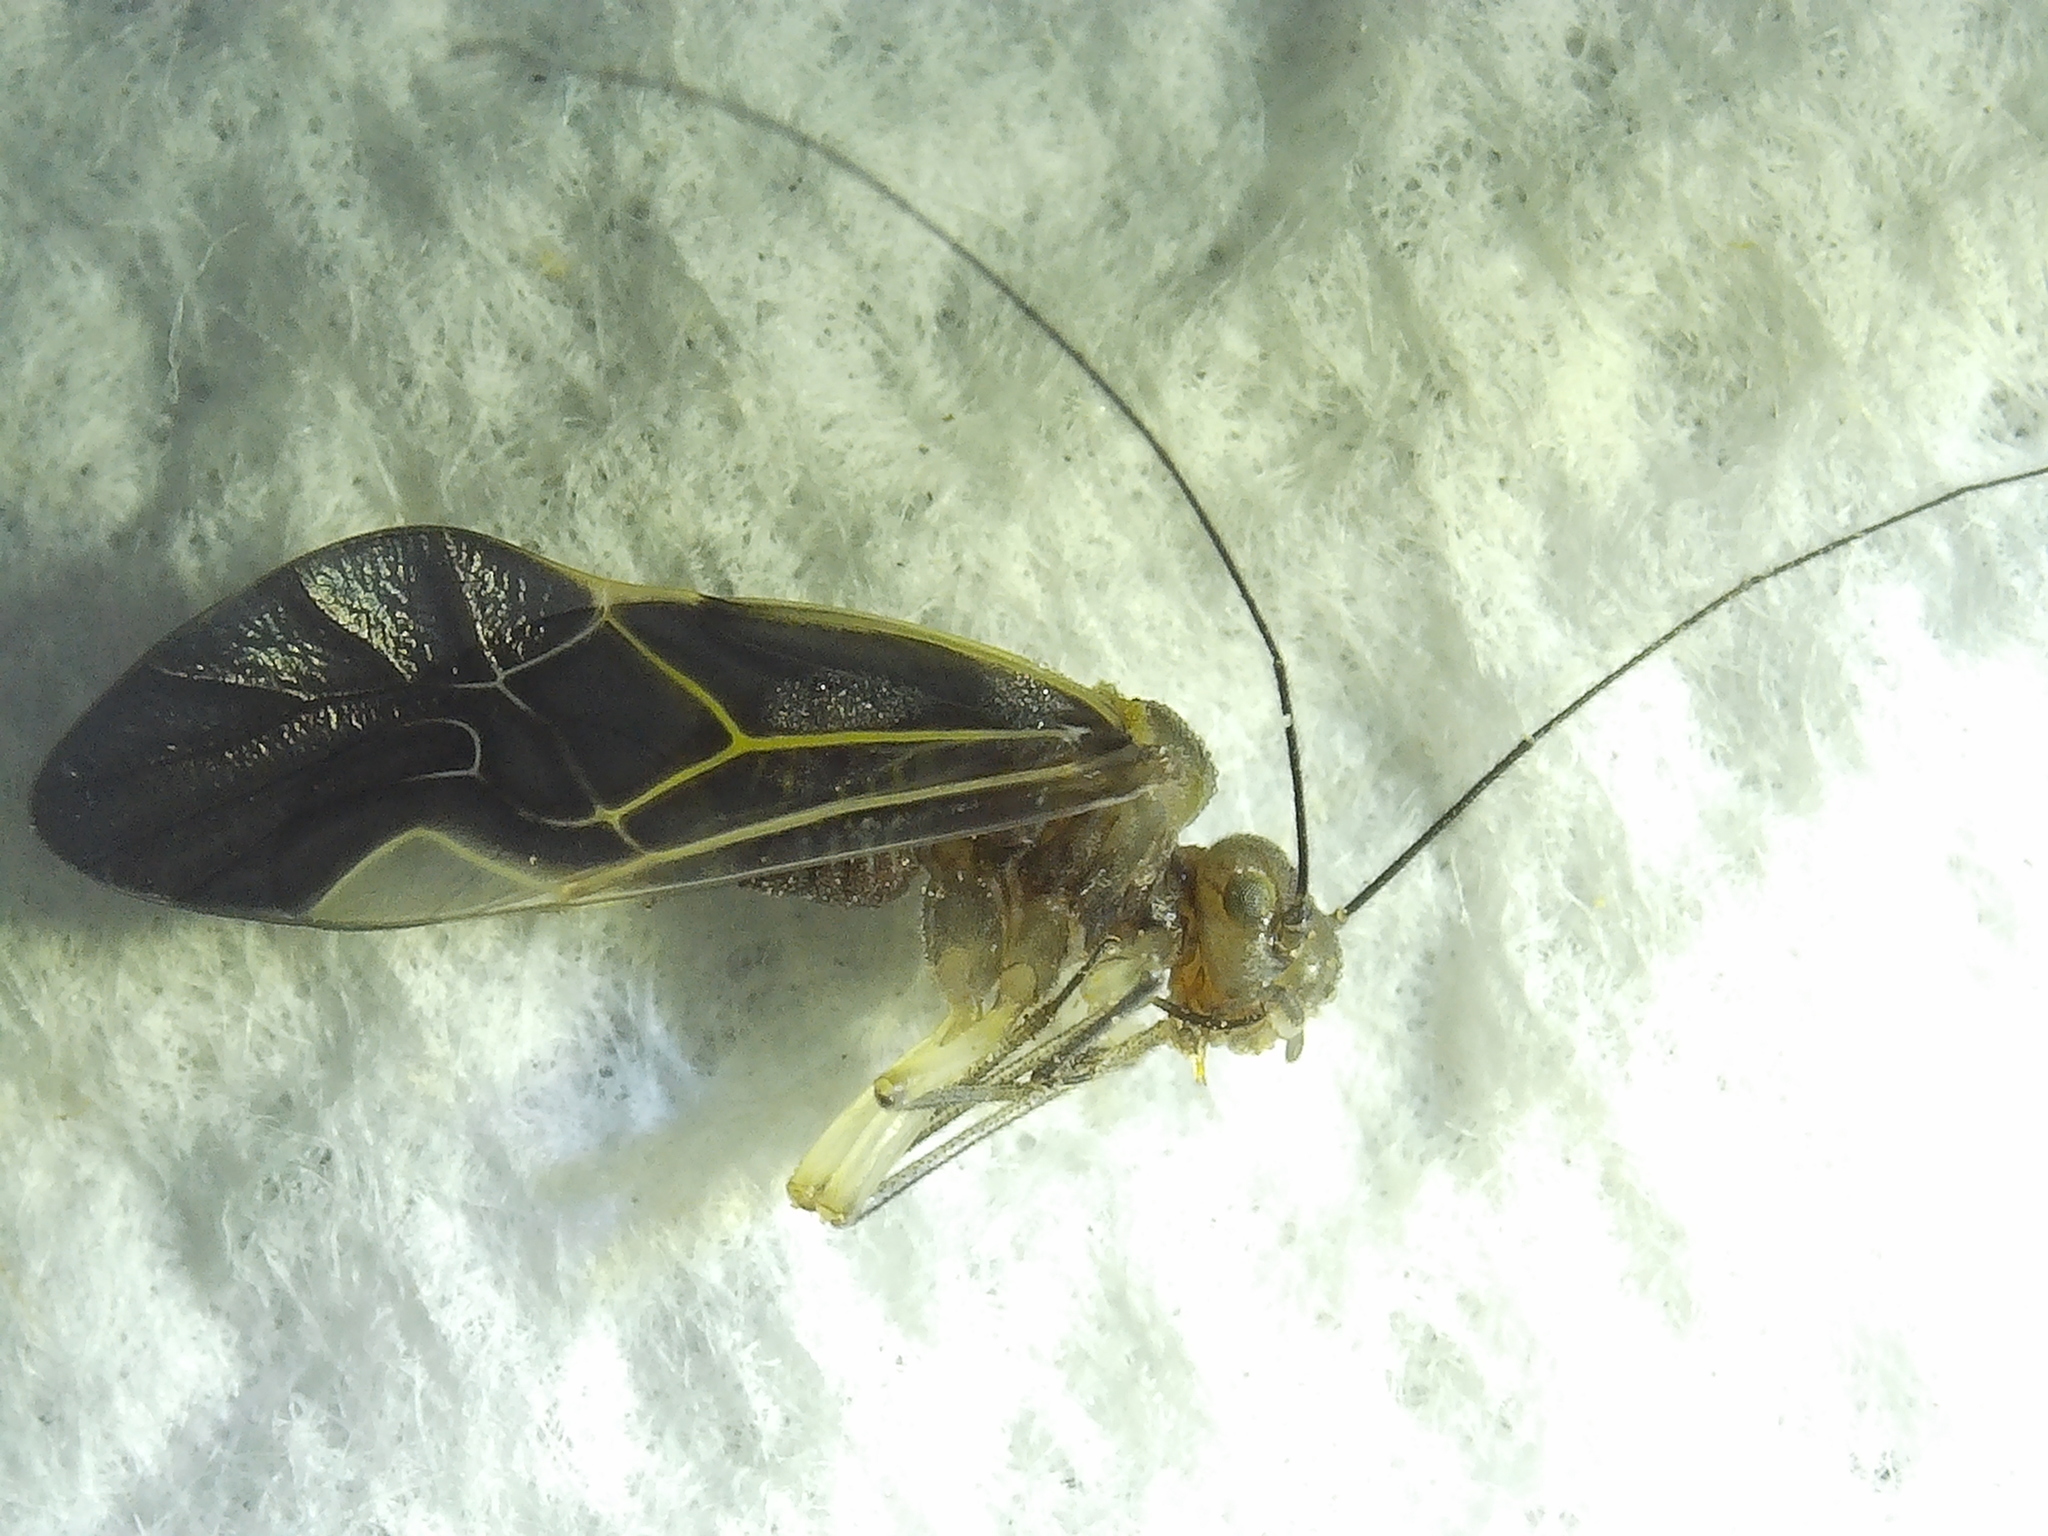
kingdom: Animalia
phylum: Arthropoda
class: Insecta
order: Psocodea
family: Psocidae
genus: Cerastipsocus
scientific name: Cerastipsocus venosus
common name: Tree cattle
